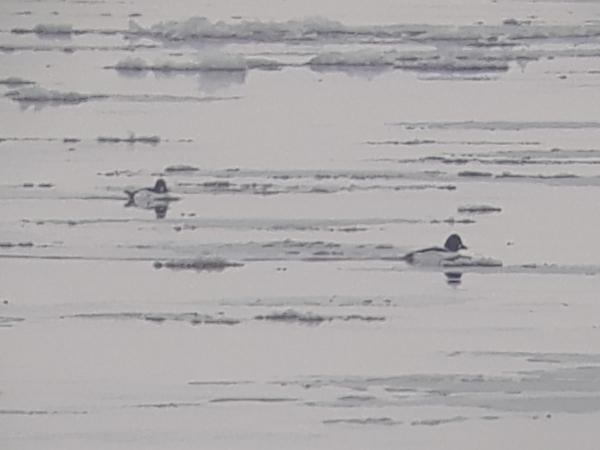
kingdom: Animalia
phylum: Chordata
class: Aves
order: Anseriformes
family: Anatidae
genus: Bucephala
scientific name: Bucephala clangula
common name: Common goldeneye
